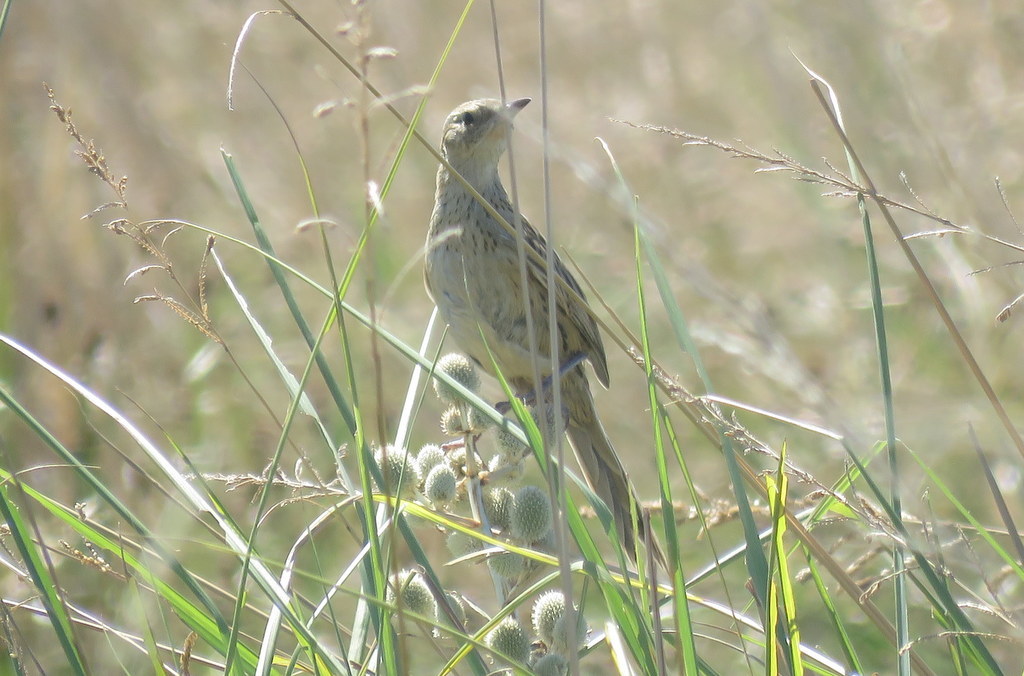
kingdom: Animalia
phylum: Chordata
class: Aves
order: Passeriformes
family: Furnariidae
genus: Asthenes
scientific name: Asthenes hudsoni
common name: Hudson's canastero
